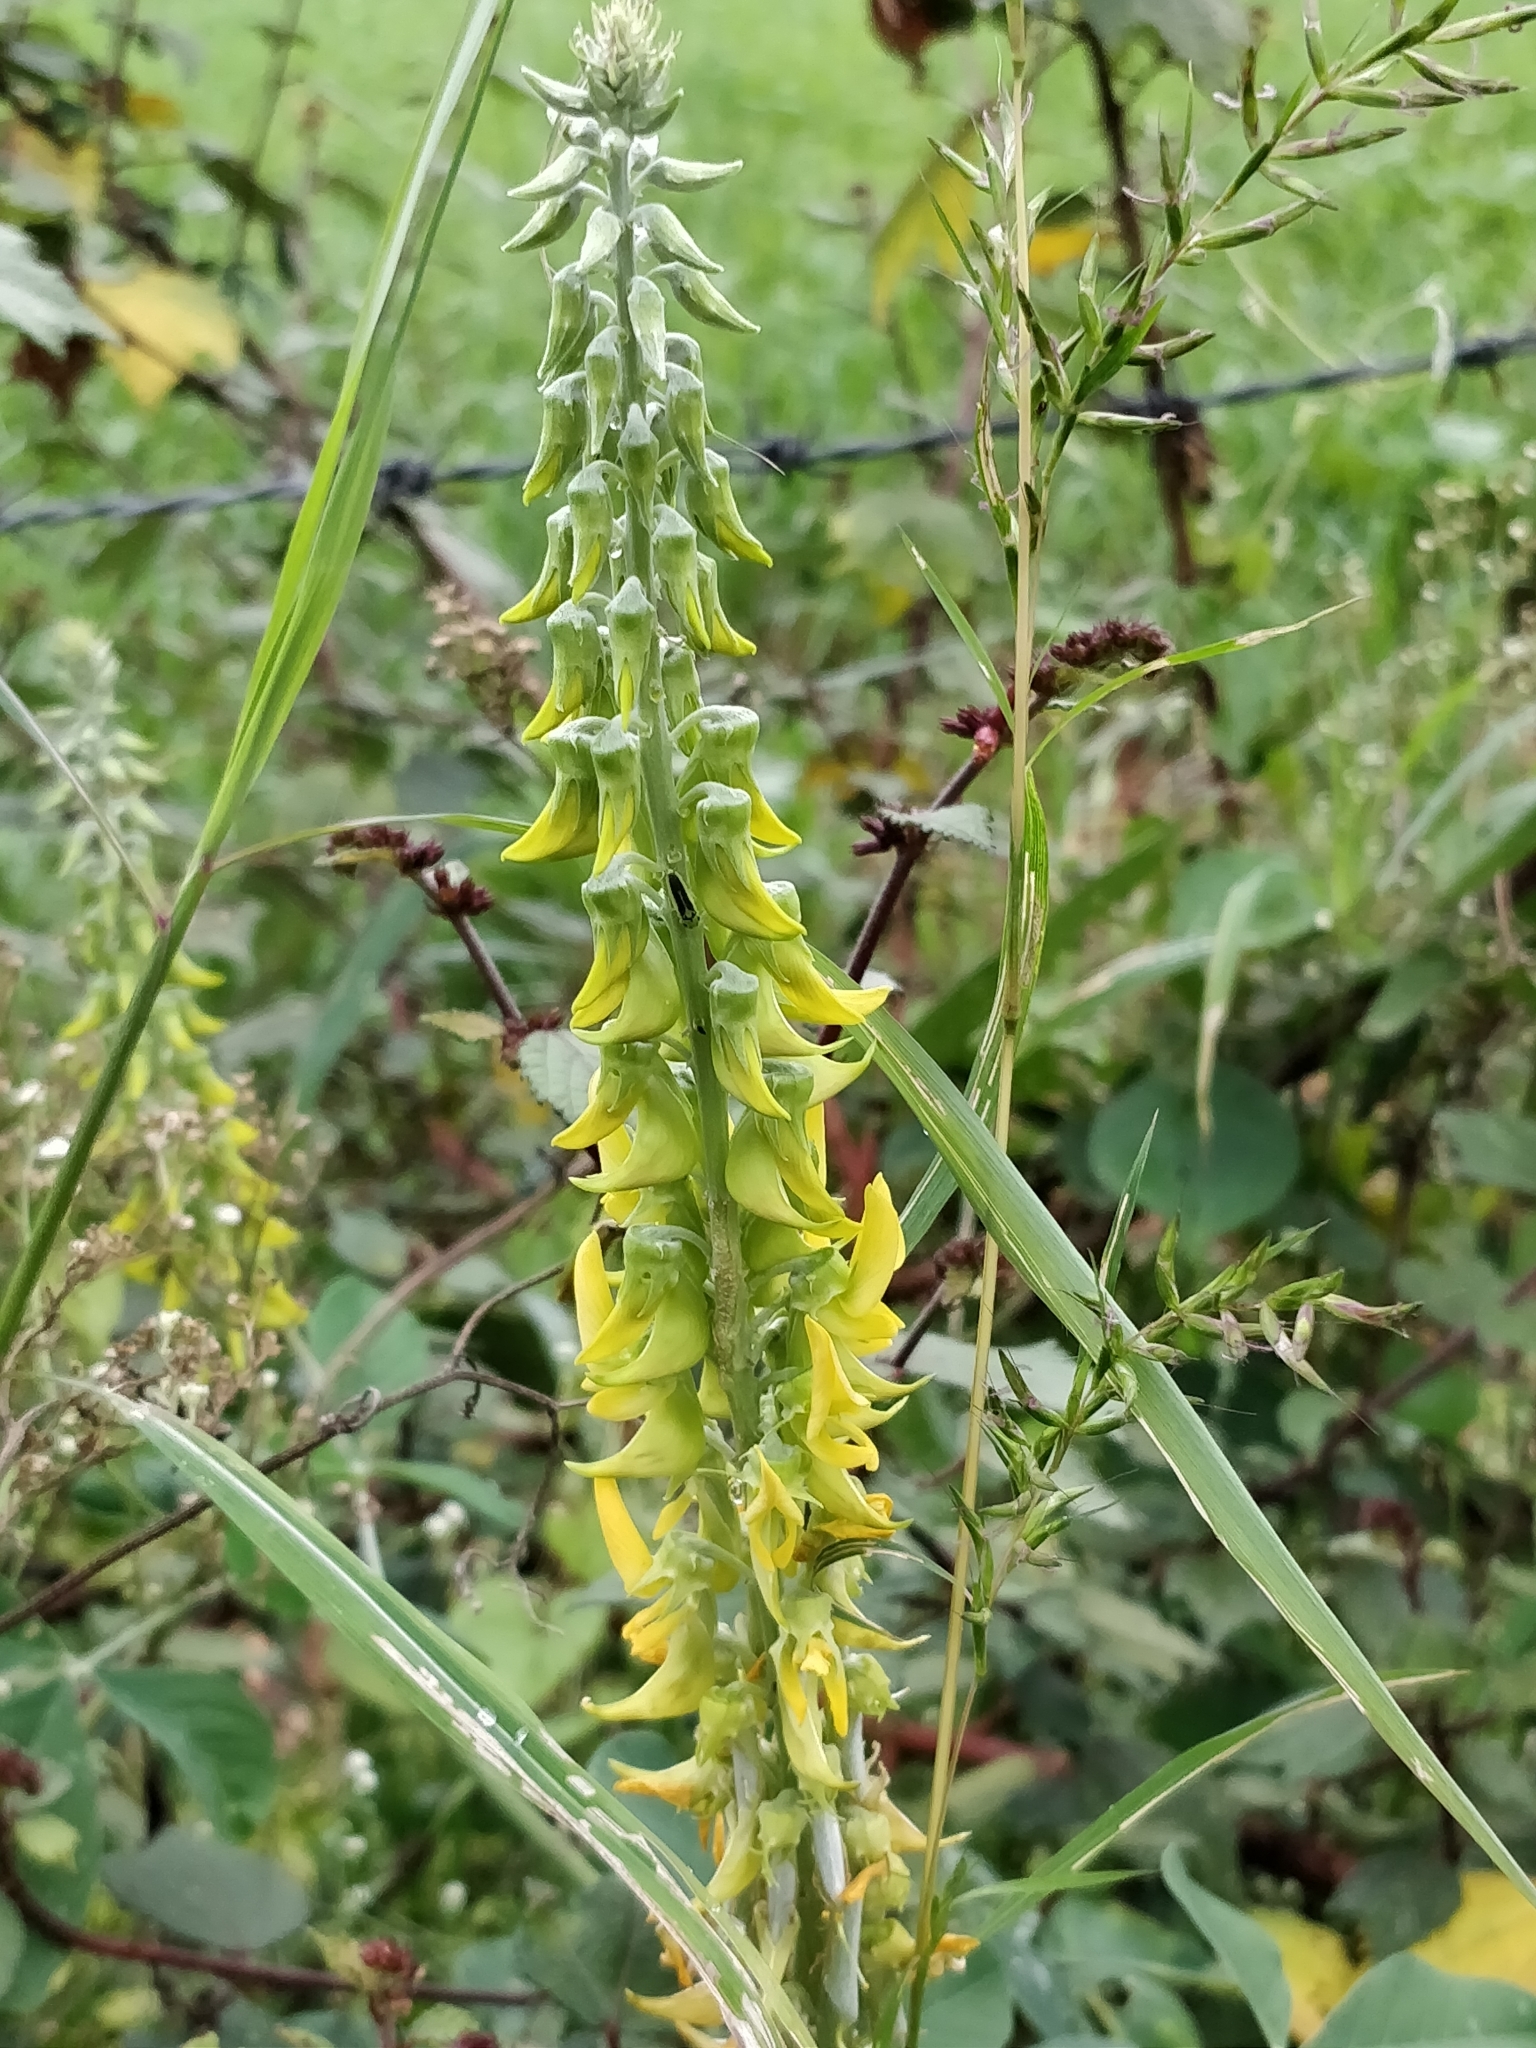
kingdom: Plantae
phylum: Tracheophyta
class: Magnoliopsida
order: Fabales
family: Fabaceae
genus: Crotalaria
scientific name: Crotalaria pallida
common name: Smooth rattlebox
